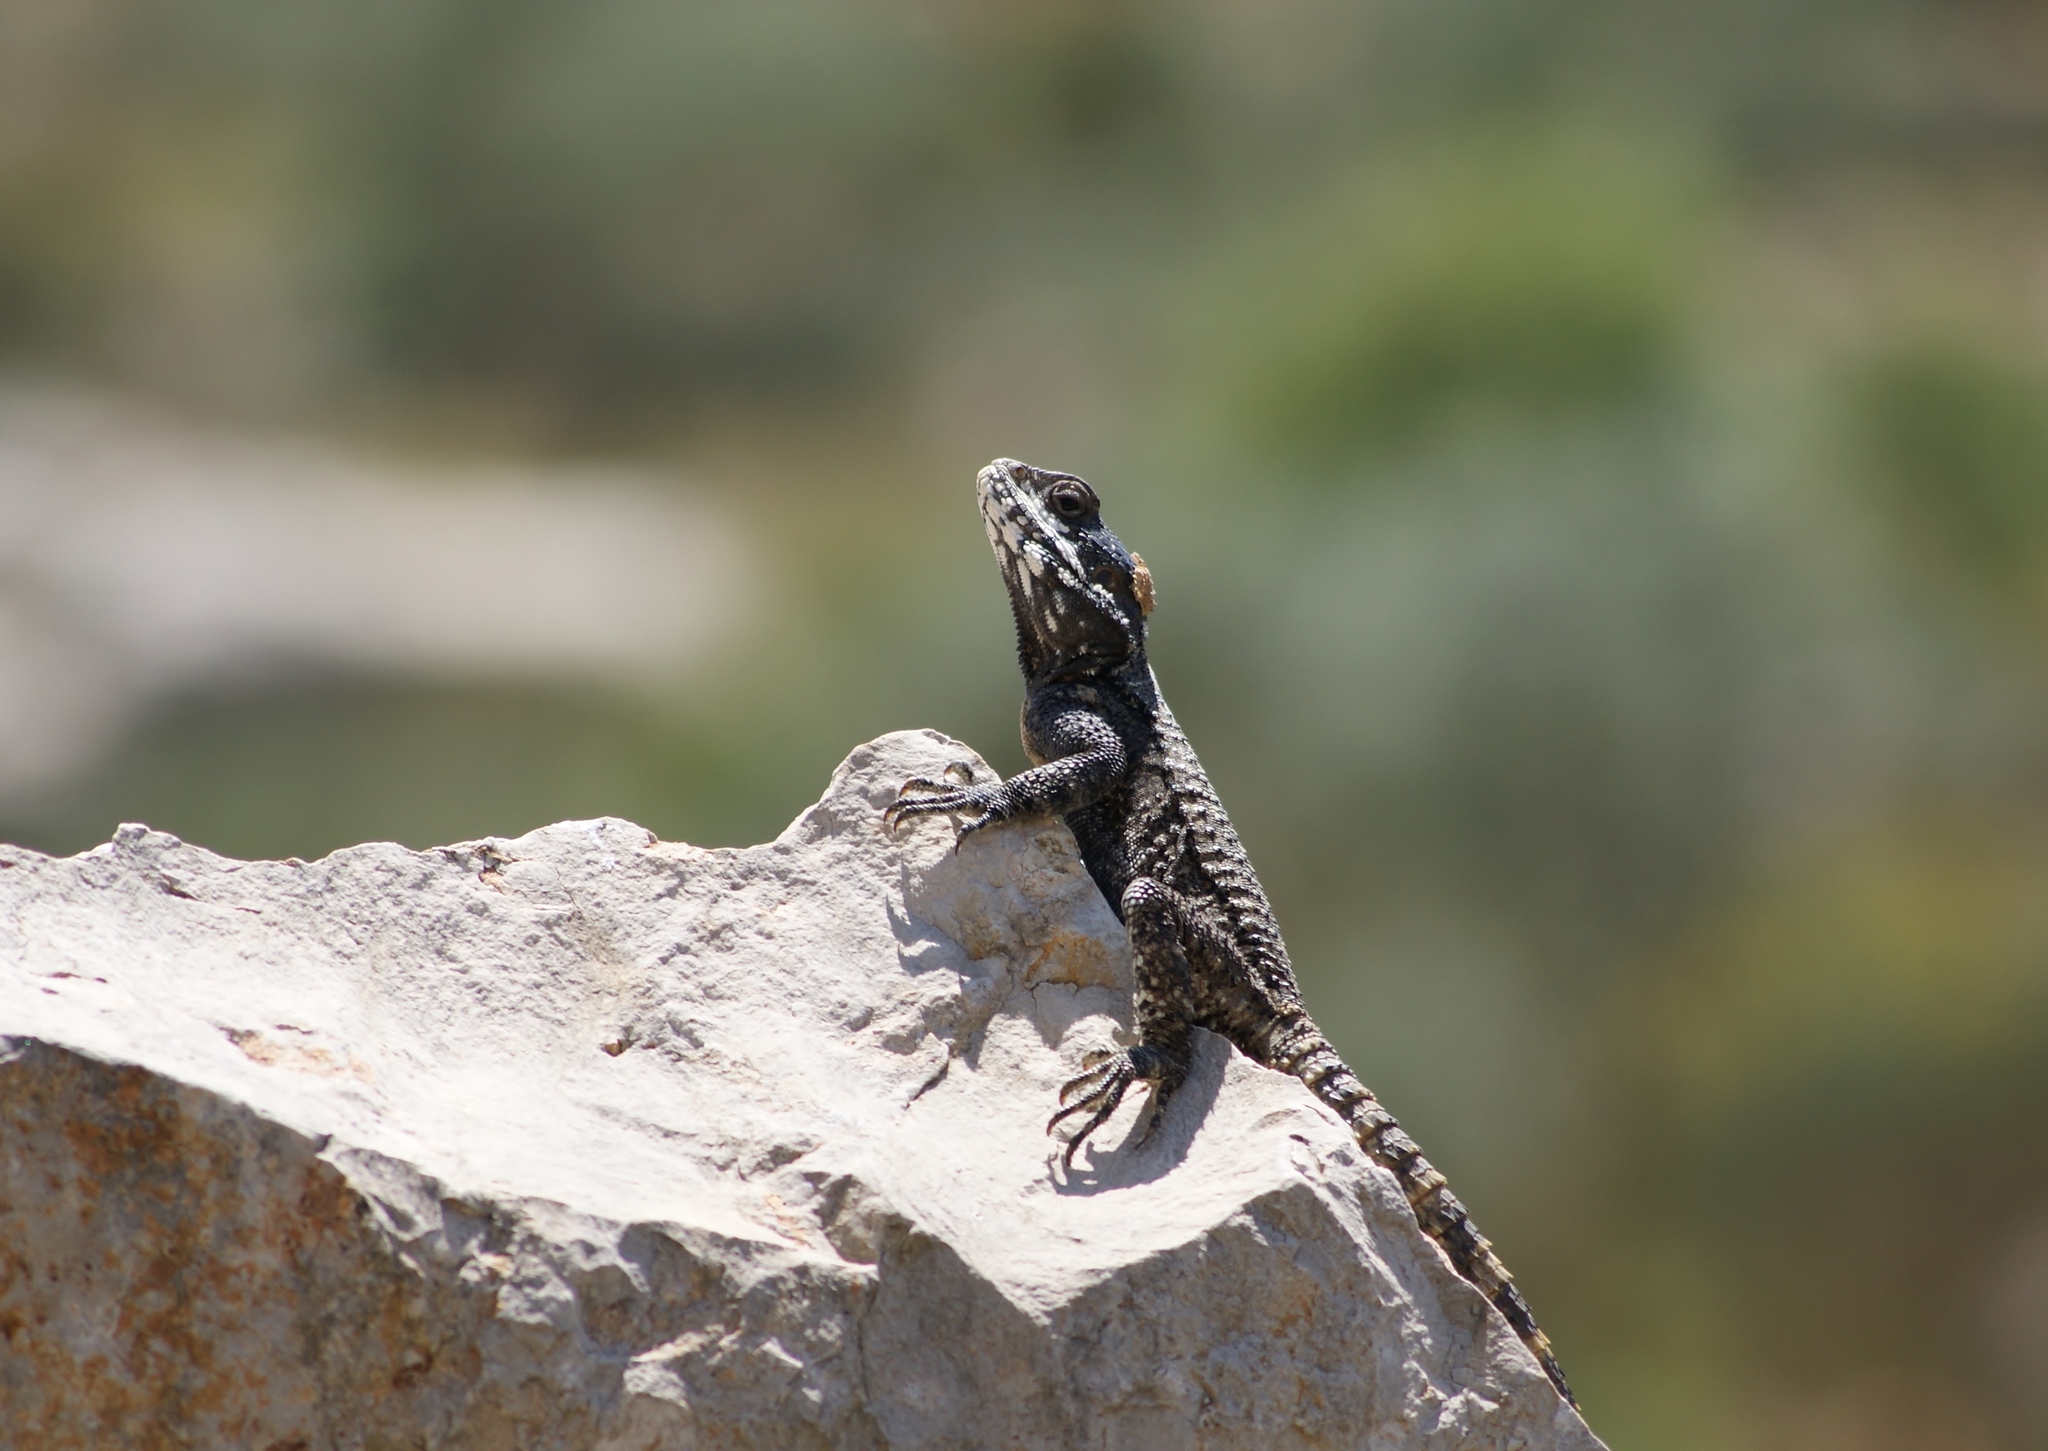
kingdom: Animalia
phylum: Chordata
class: Squamata
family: Agamidae
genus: Laudakia
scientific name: Laudakia vulgaris
